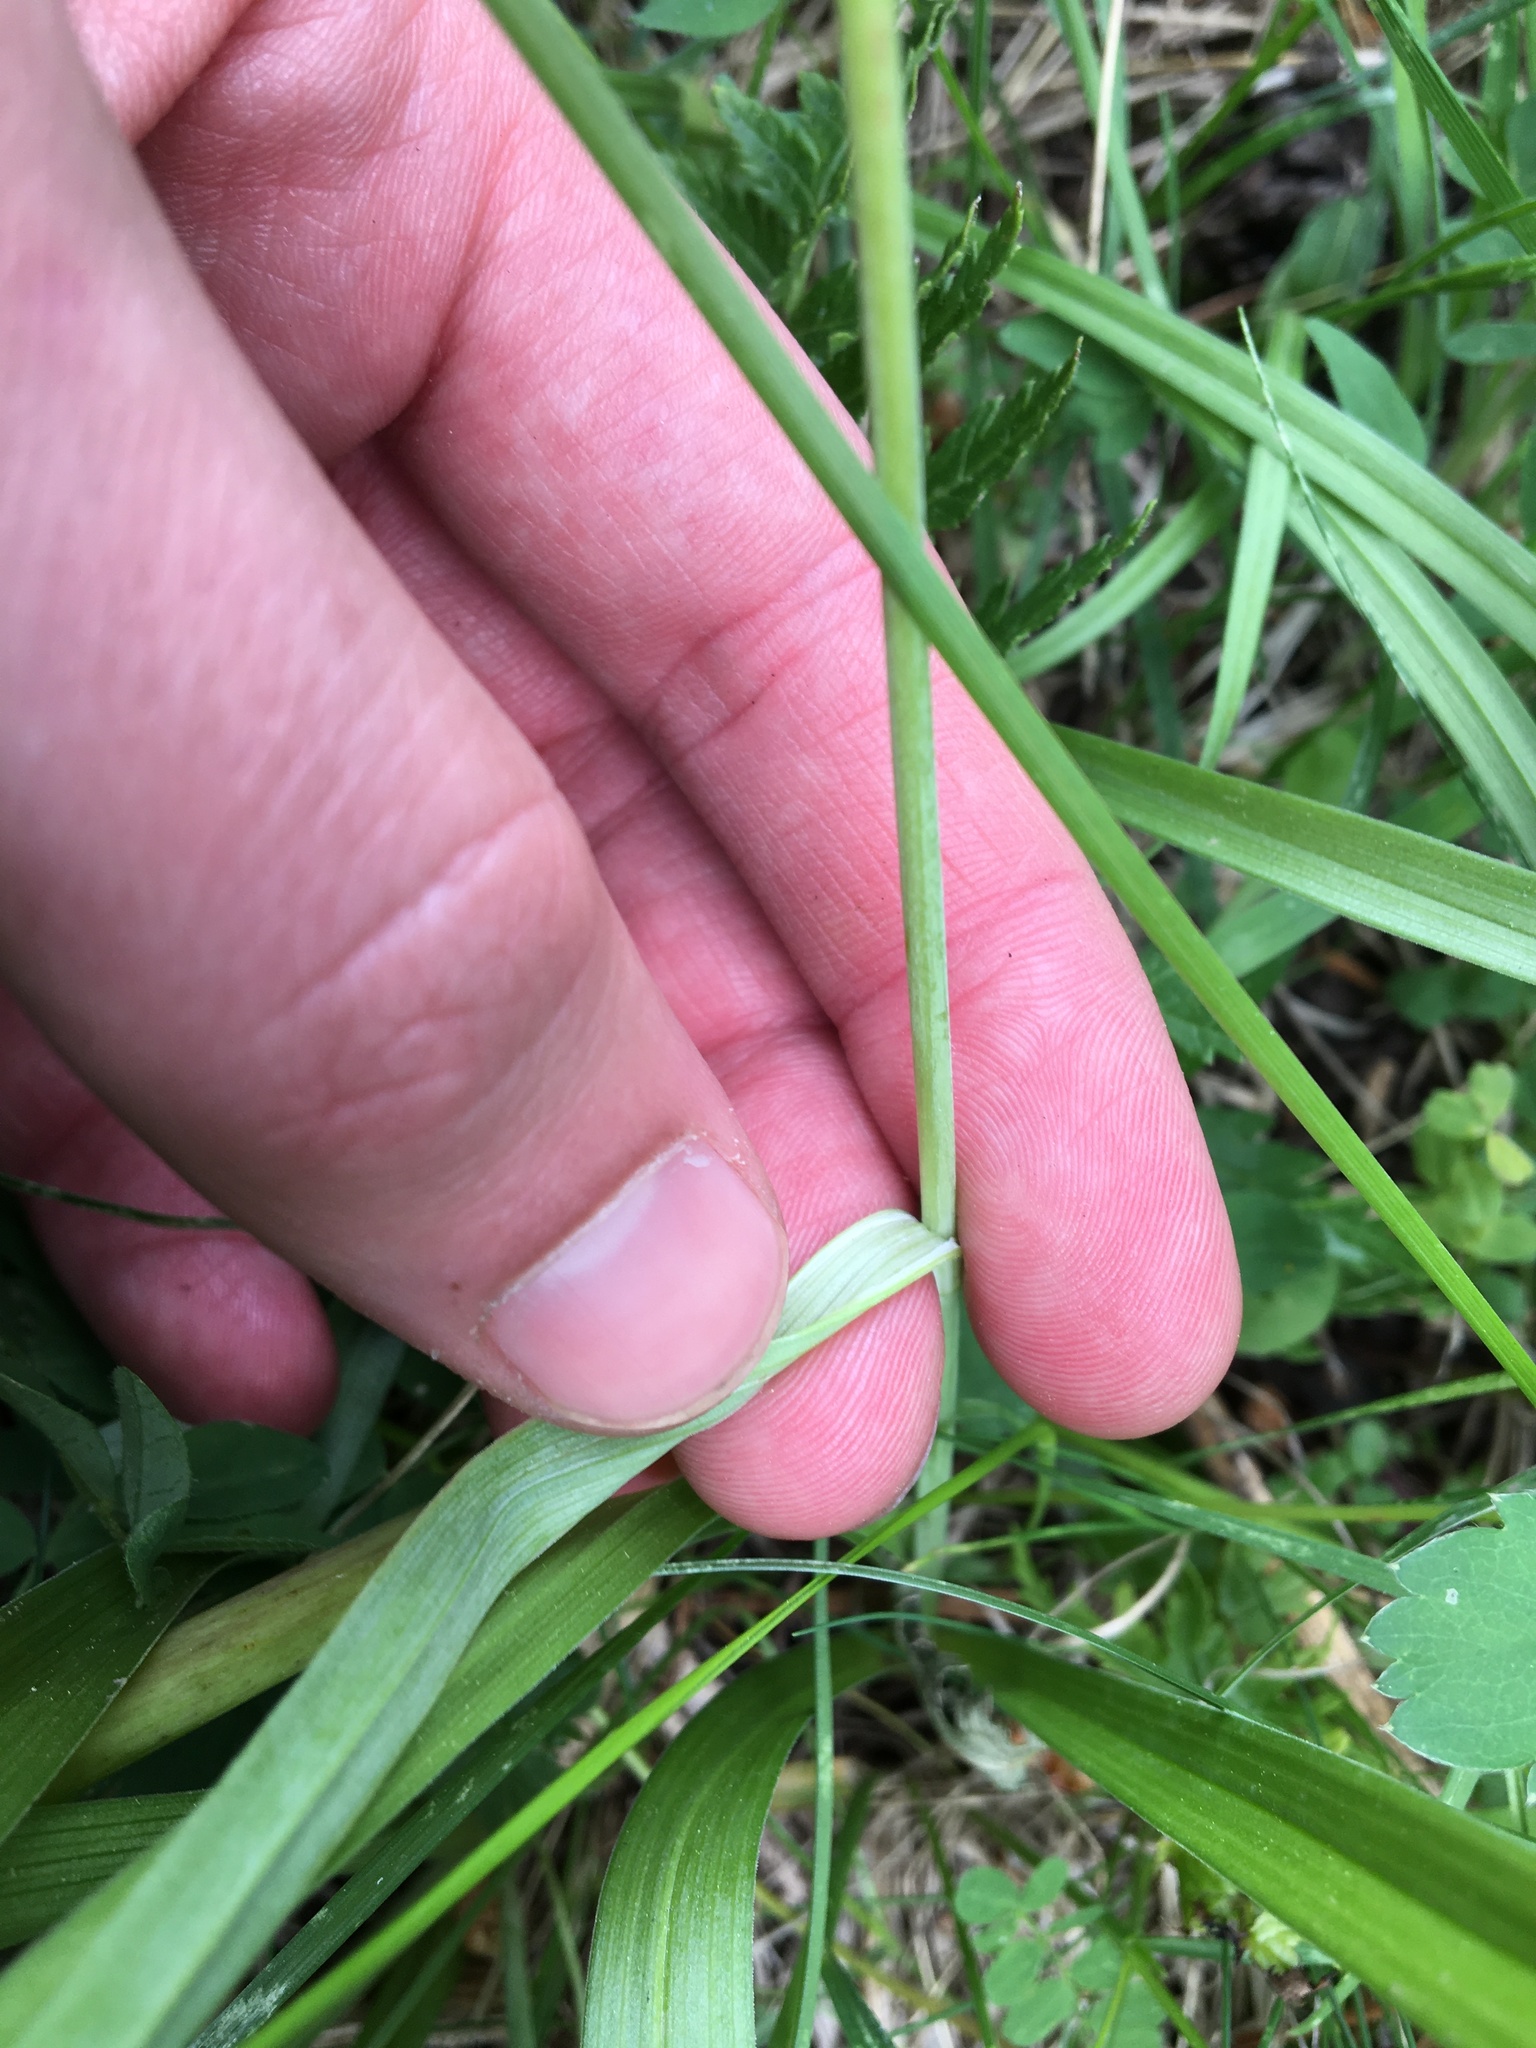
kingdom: Plantae
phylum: Tracheophyta
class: Liliopsida
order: Liliales
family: Melanthiaceae
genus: Anticlea
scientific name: Anticlea elegans
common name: Mountain death camas
